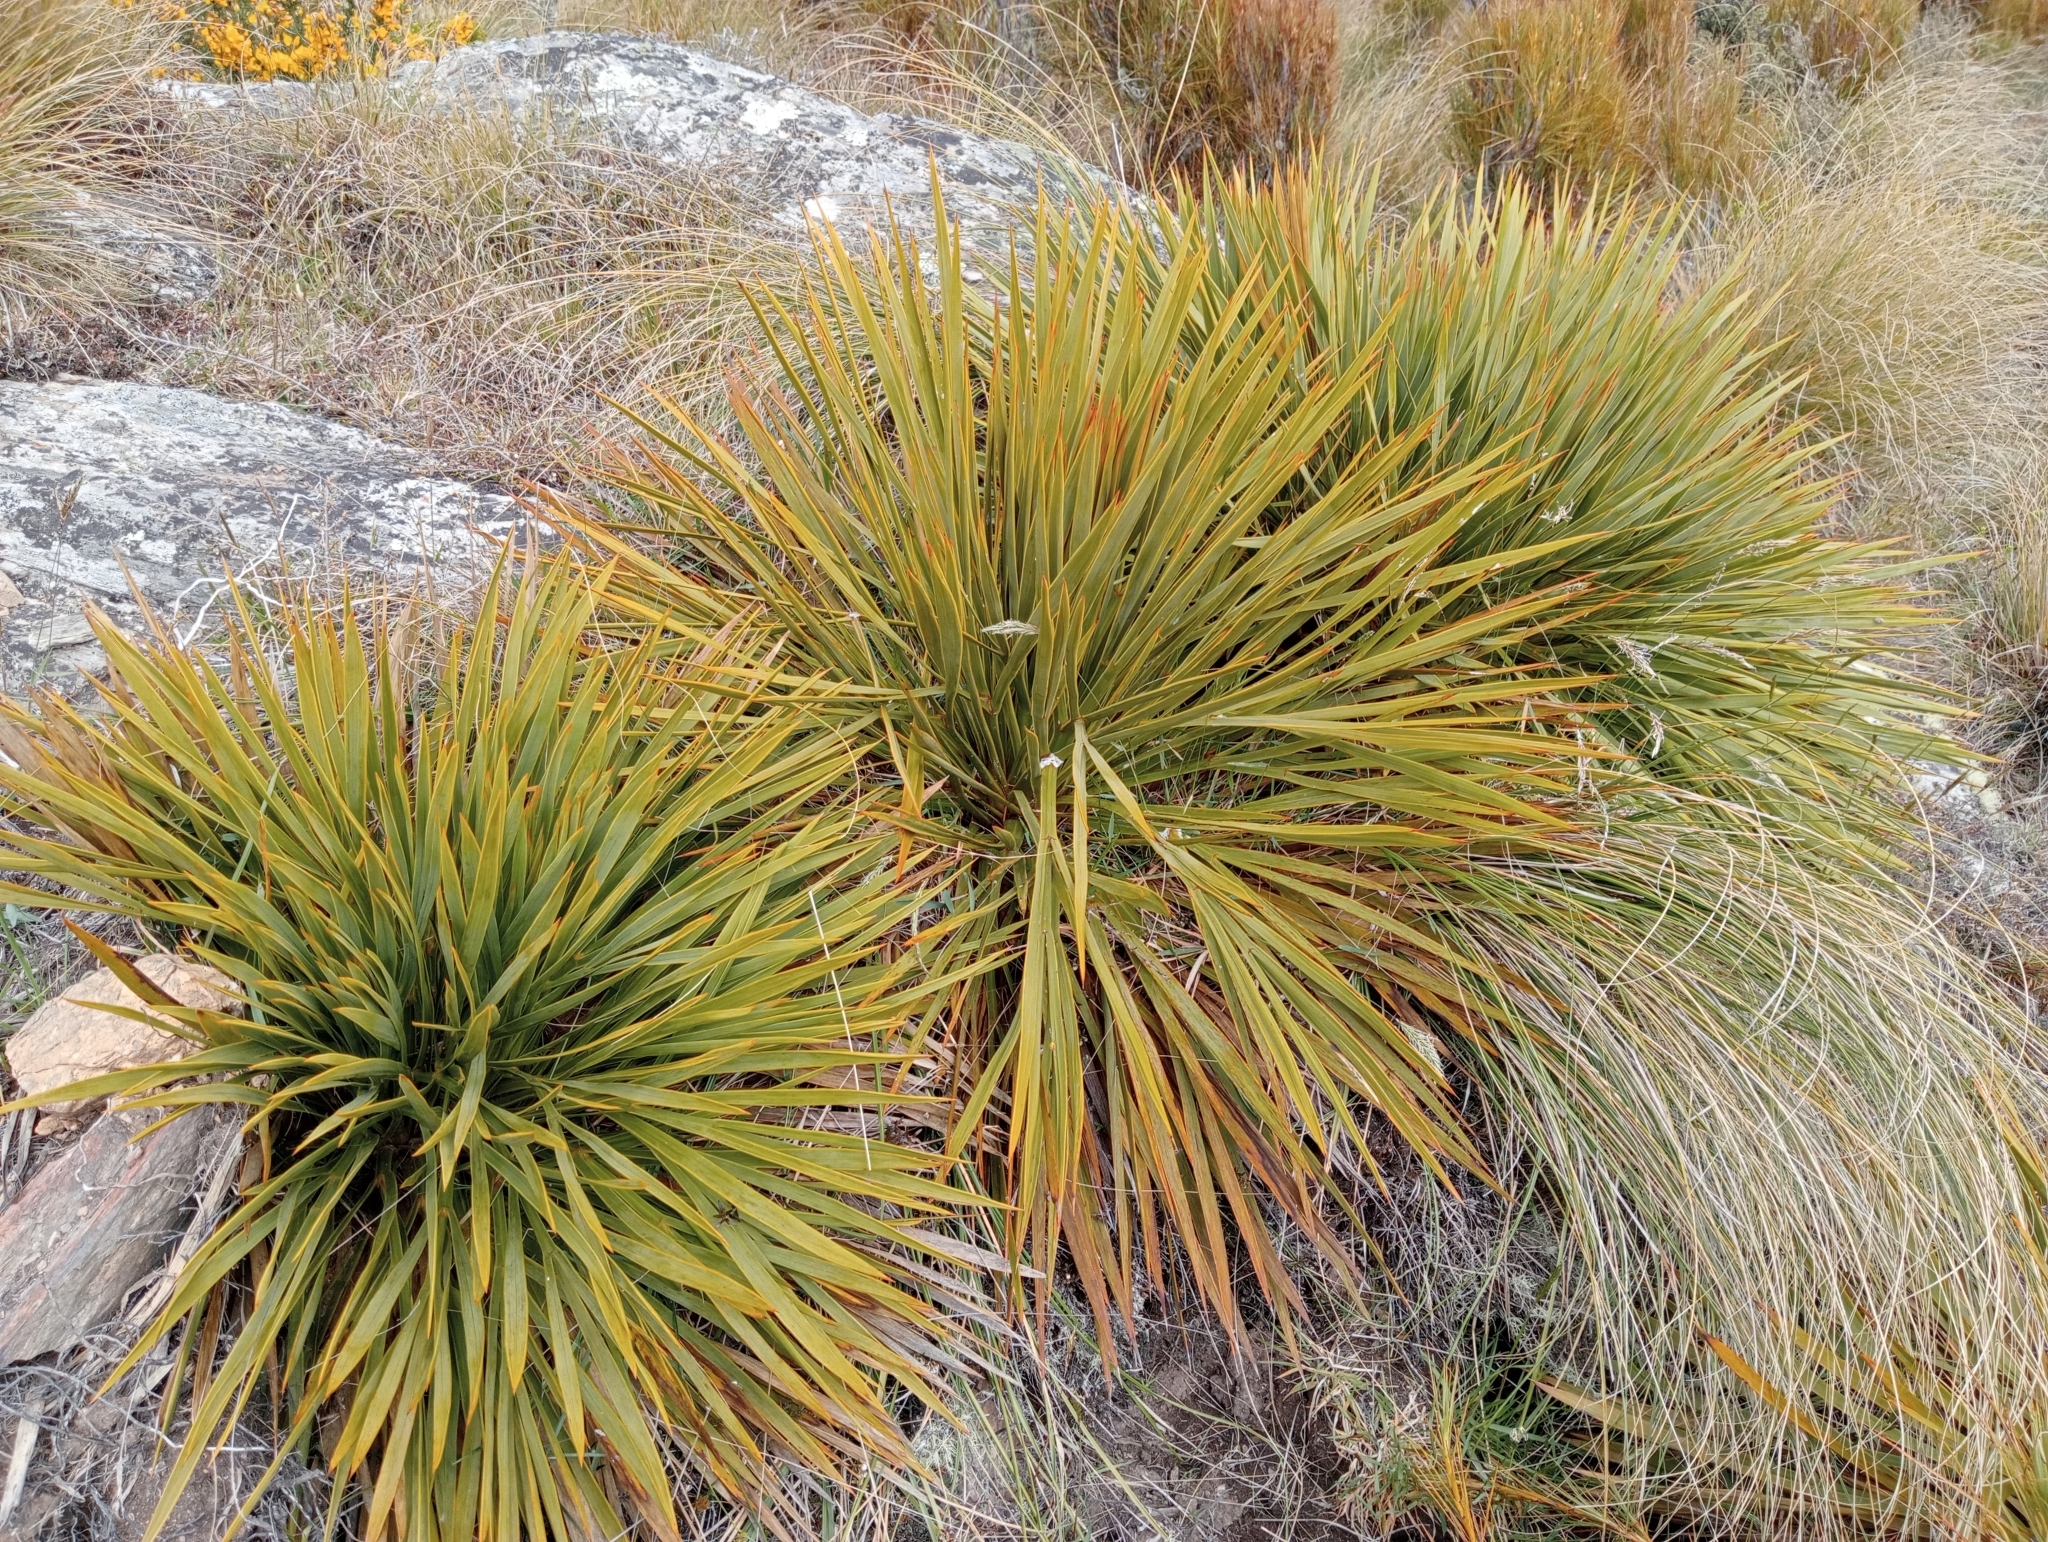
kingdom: Plantae
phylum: Tracheophyta
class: Magnoliopsida
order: Apiales
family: Apiaceae
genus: Aciphylla
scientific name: Aciphylla aurea
